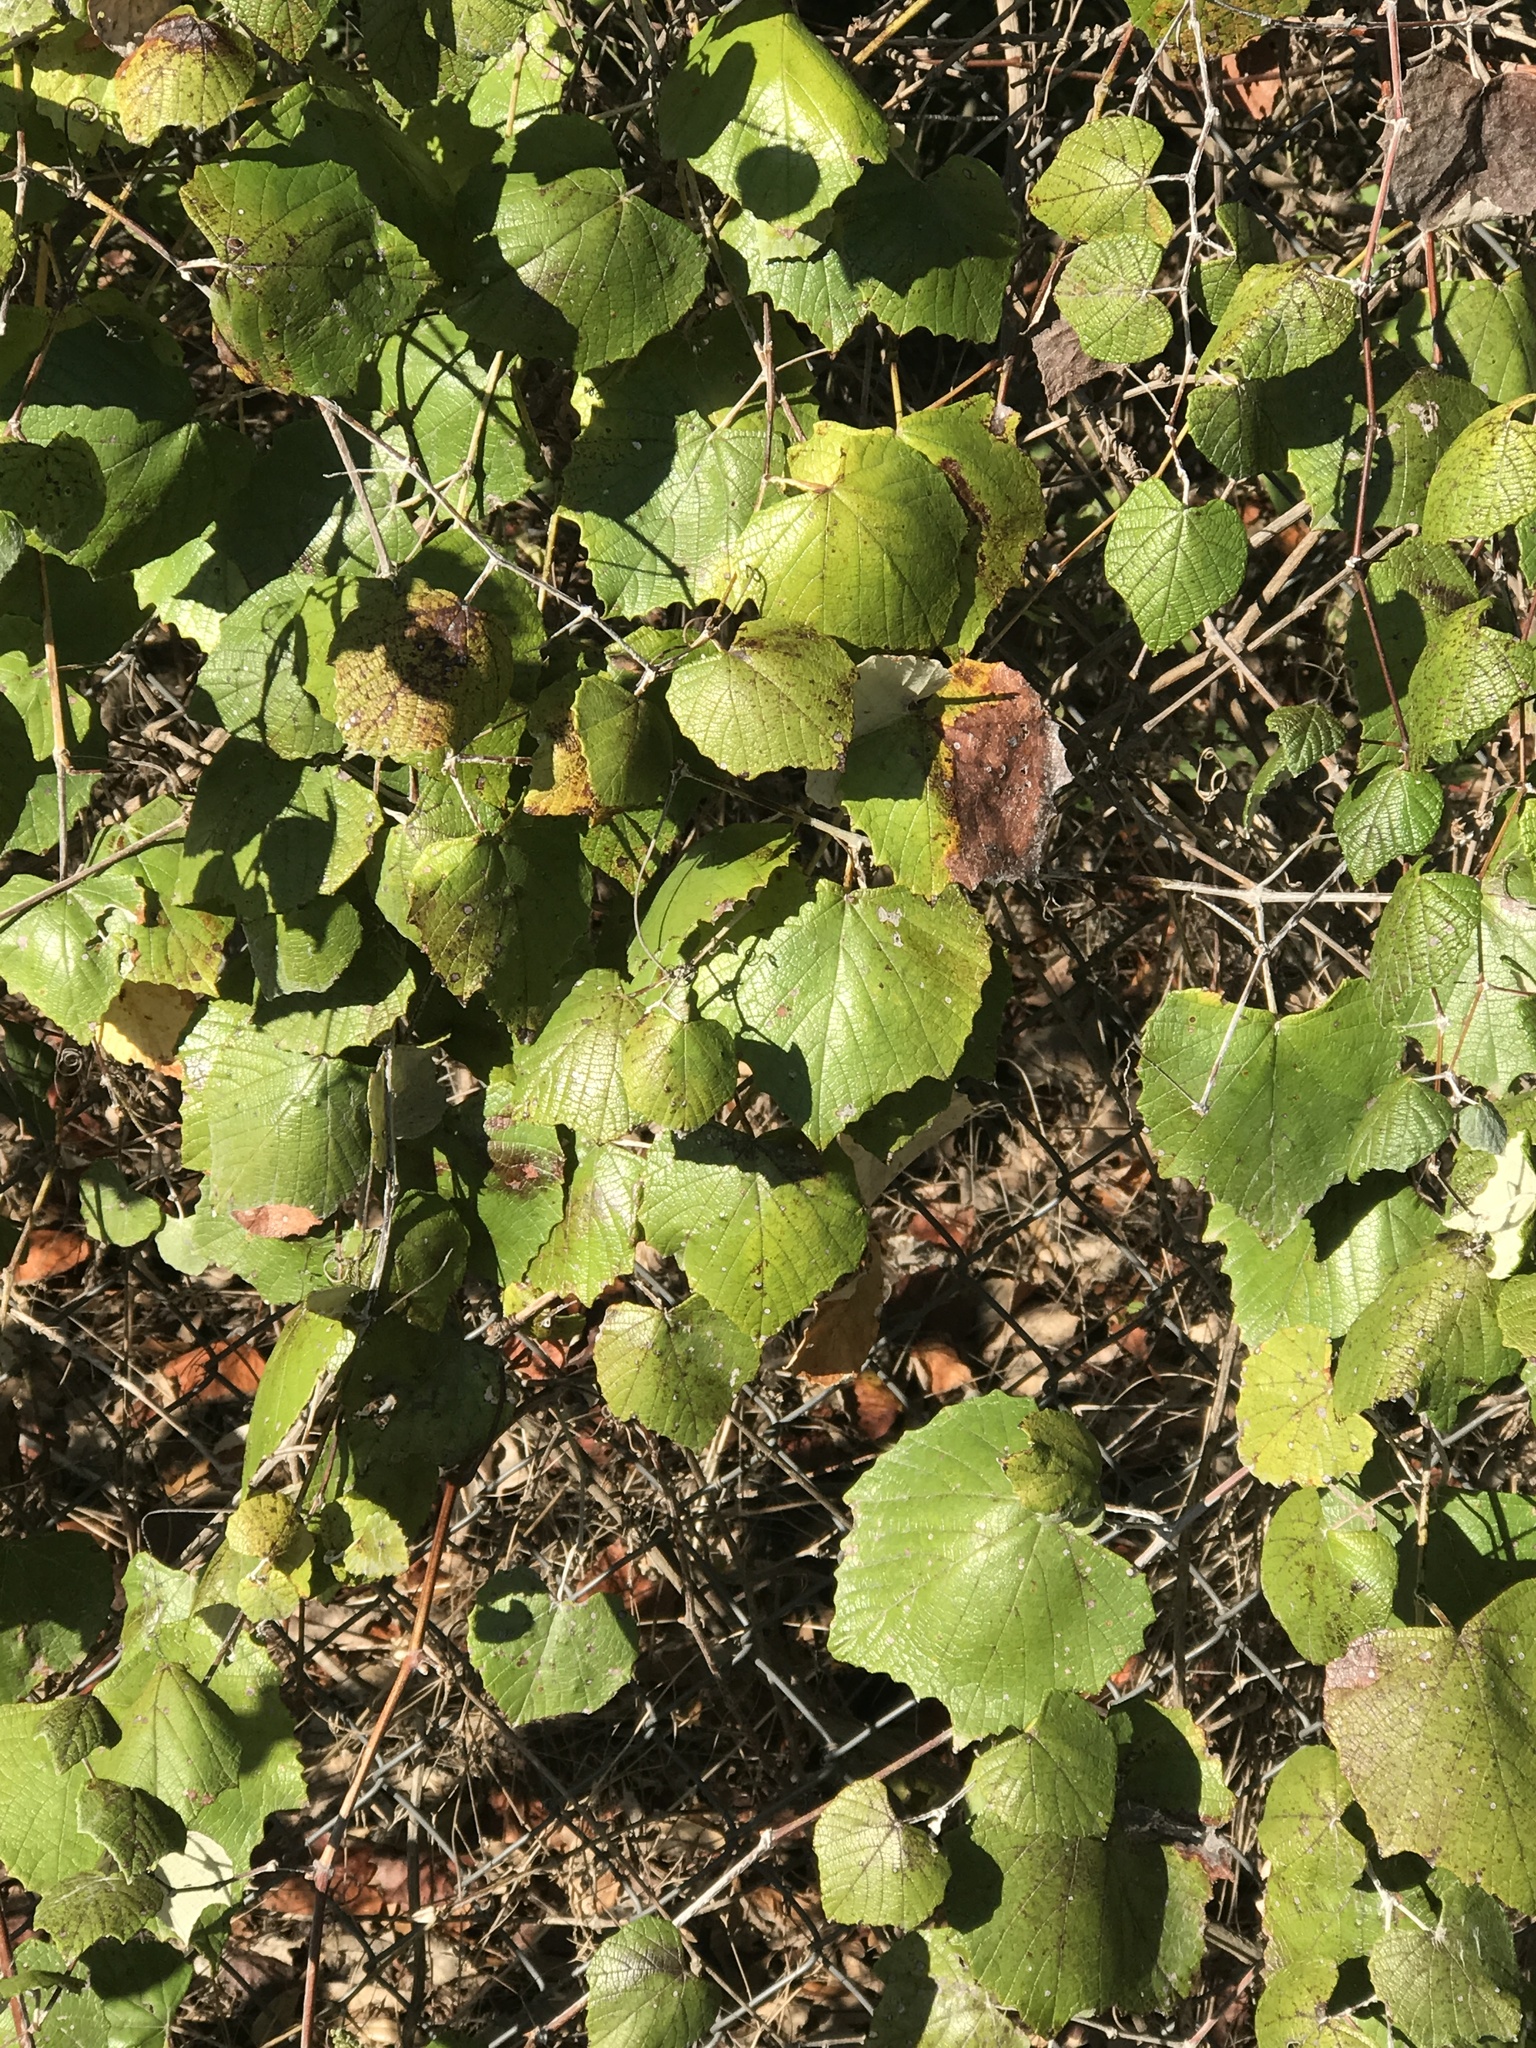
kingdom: Plantae
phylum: Tracheophyta
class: Magnoliopsida
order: Vitales
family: Vitaceae
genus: Vitis
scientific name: Vitis mustangensis
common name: Mustang grape
